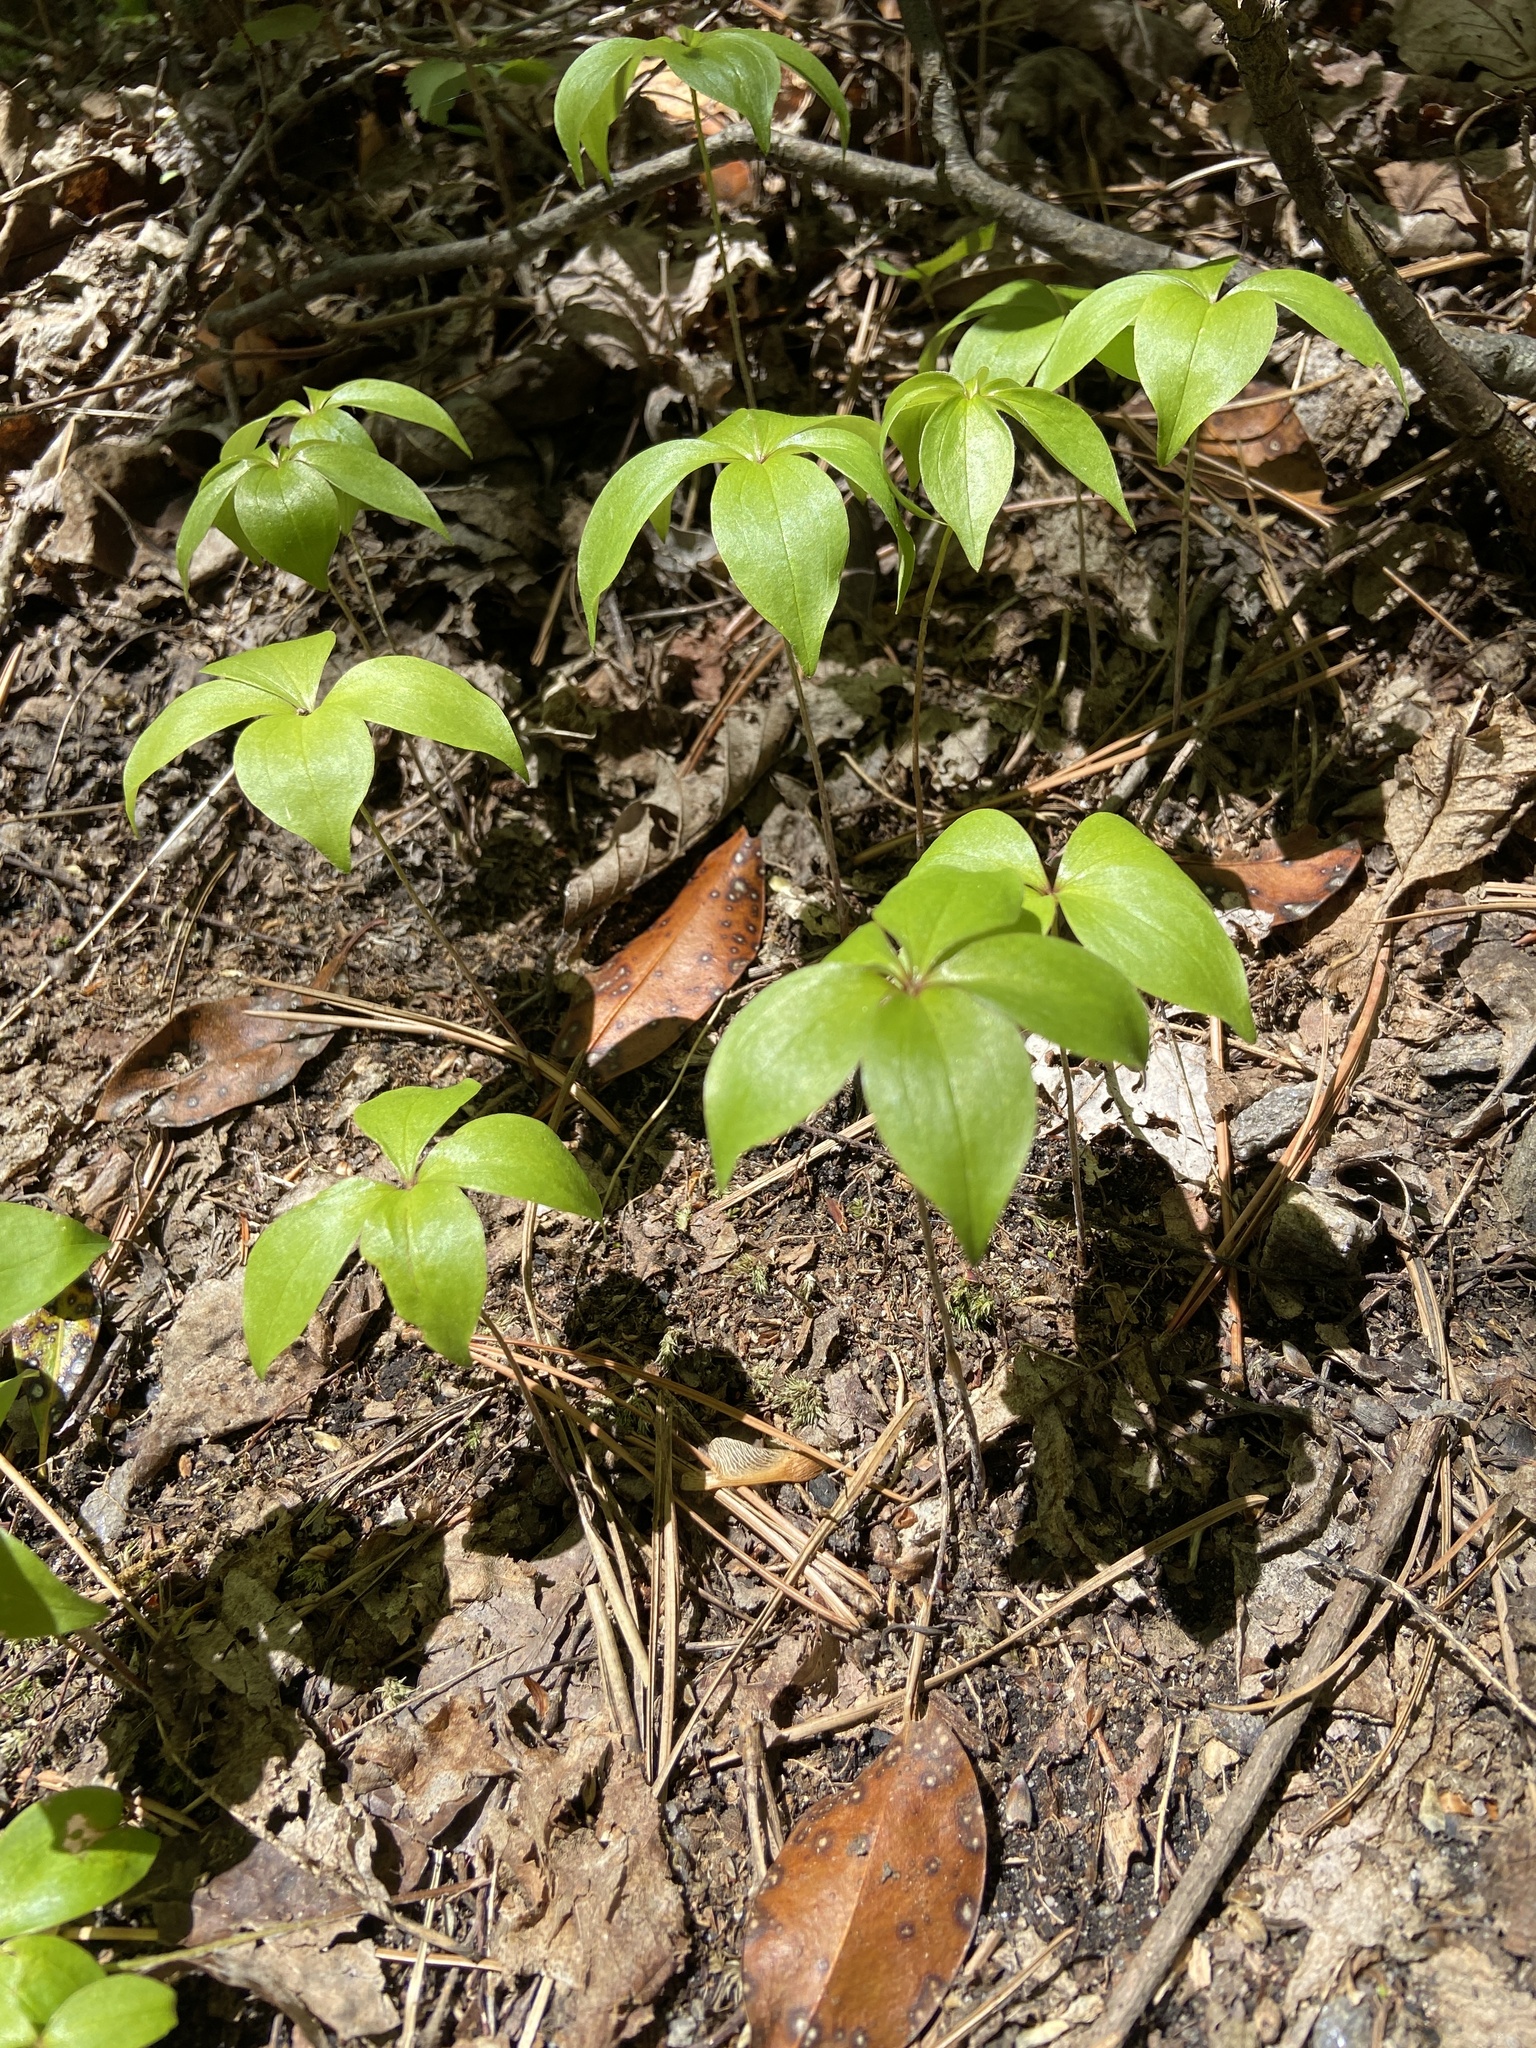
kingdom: Plantae
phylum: Tracheophyta
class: Liliopsida
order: Liliales
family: Liliaceae
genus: Medeola
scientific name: Medeola virginiana
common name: Indian cucumber-root
